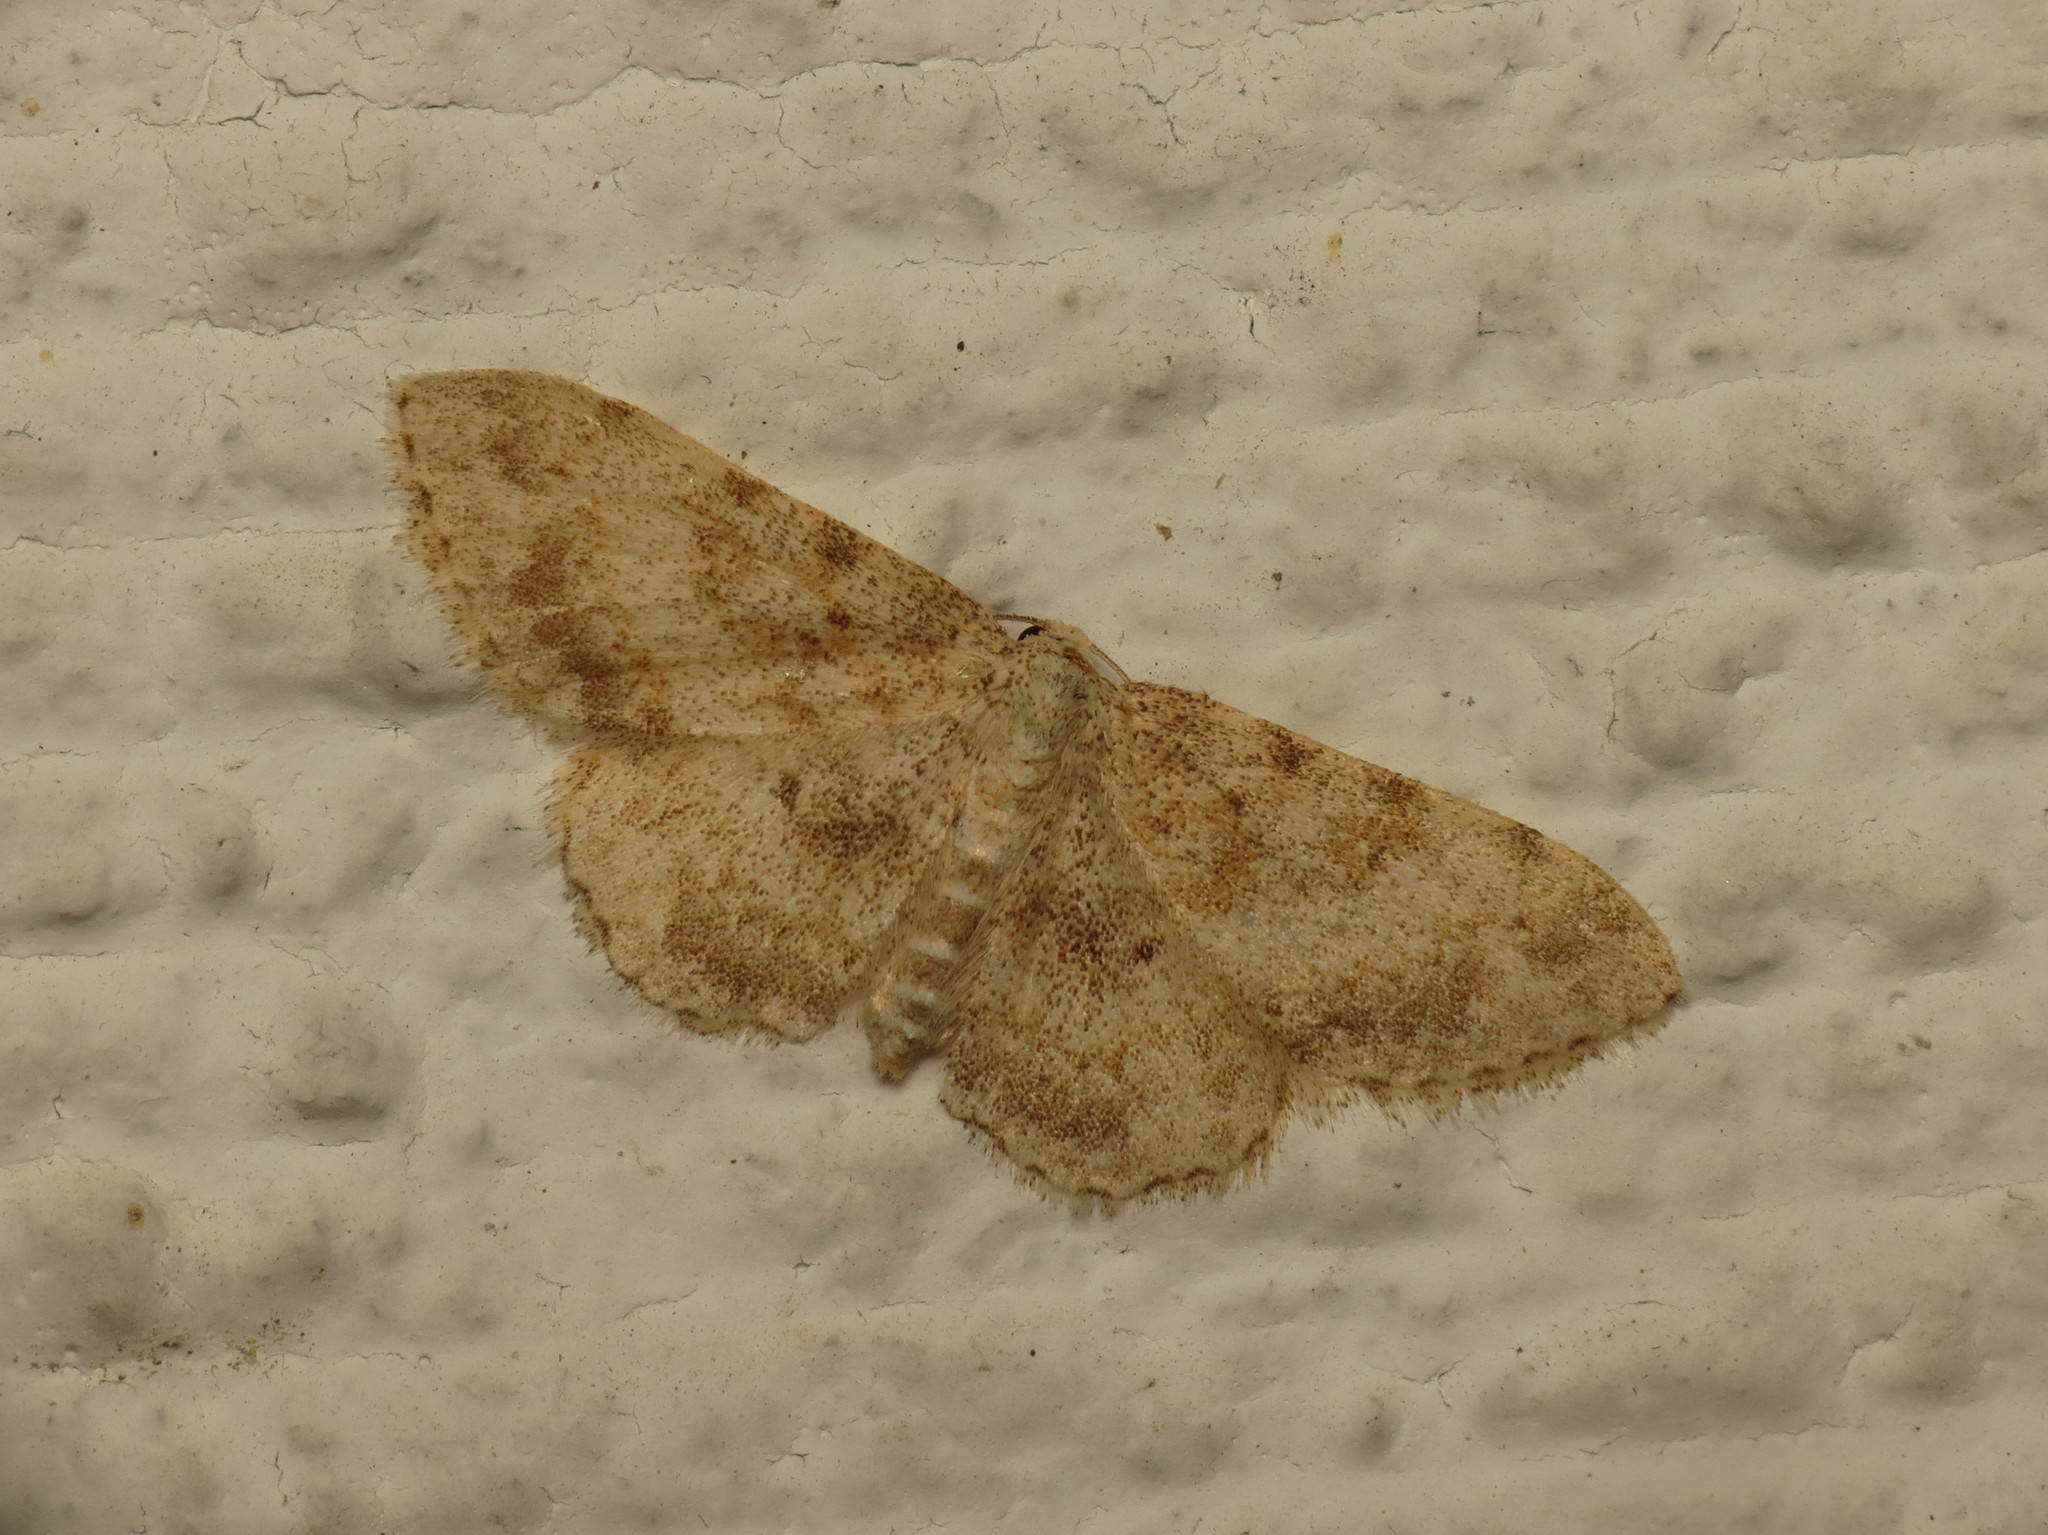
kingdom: Animalia
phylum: Arthropoda
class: Insecta
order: Lepidoptera
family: Geometridae
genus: Scopula
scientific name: Scopula luridata
